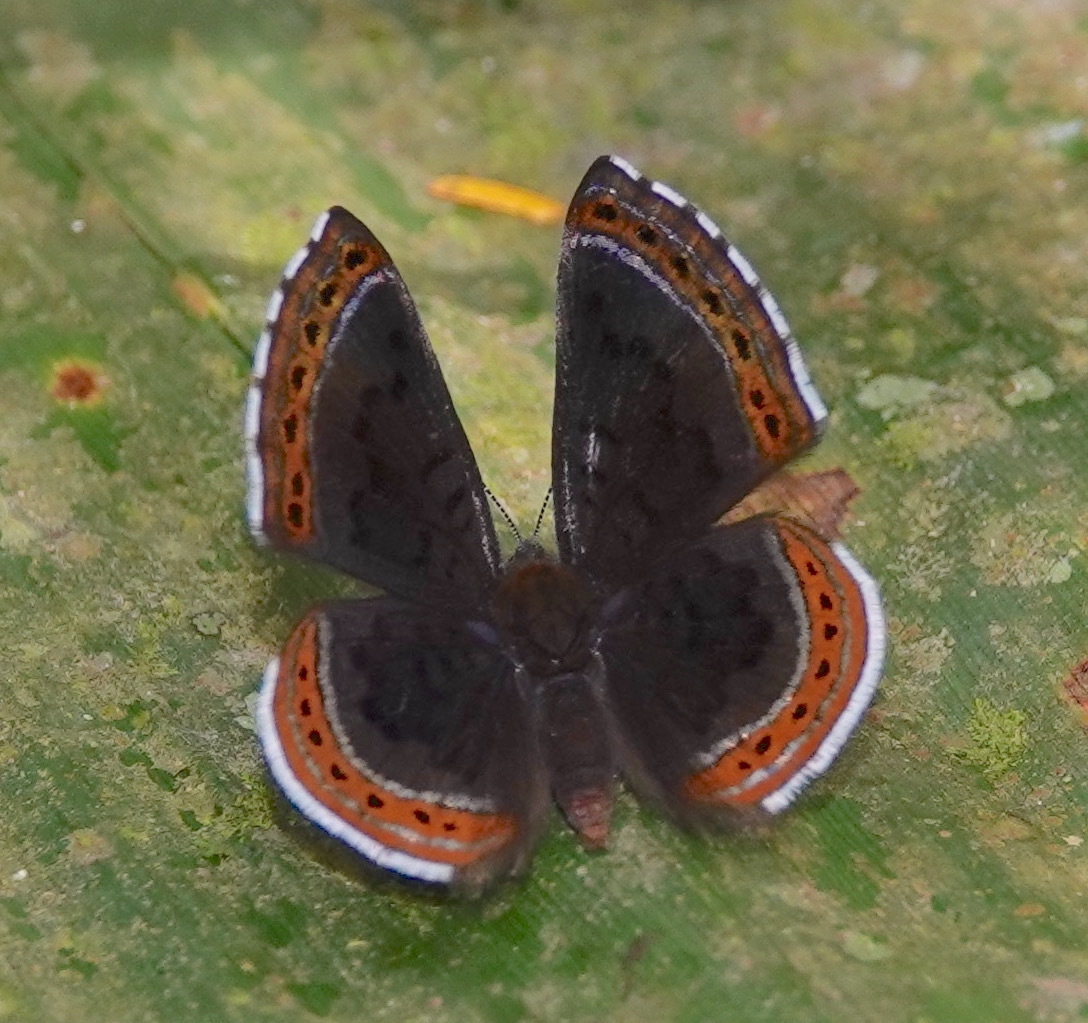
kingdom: Animalia
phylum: Arthropoda
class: Insecta
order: Lepidoptera
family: Riodinidae
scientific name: Riodinidae
